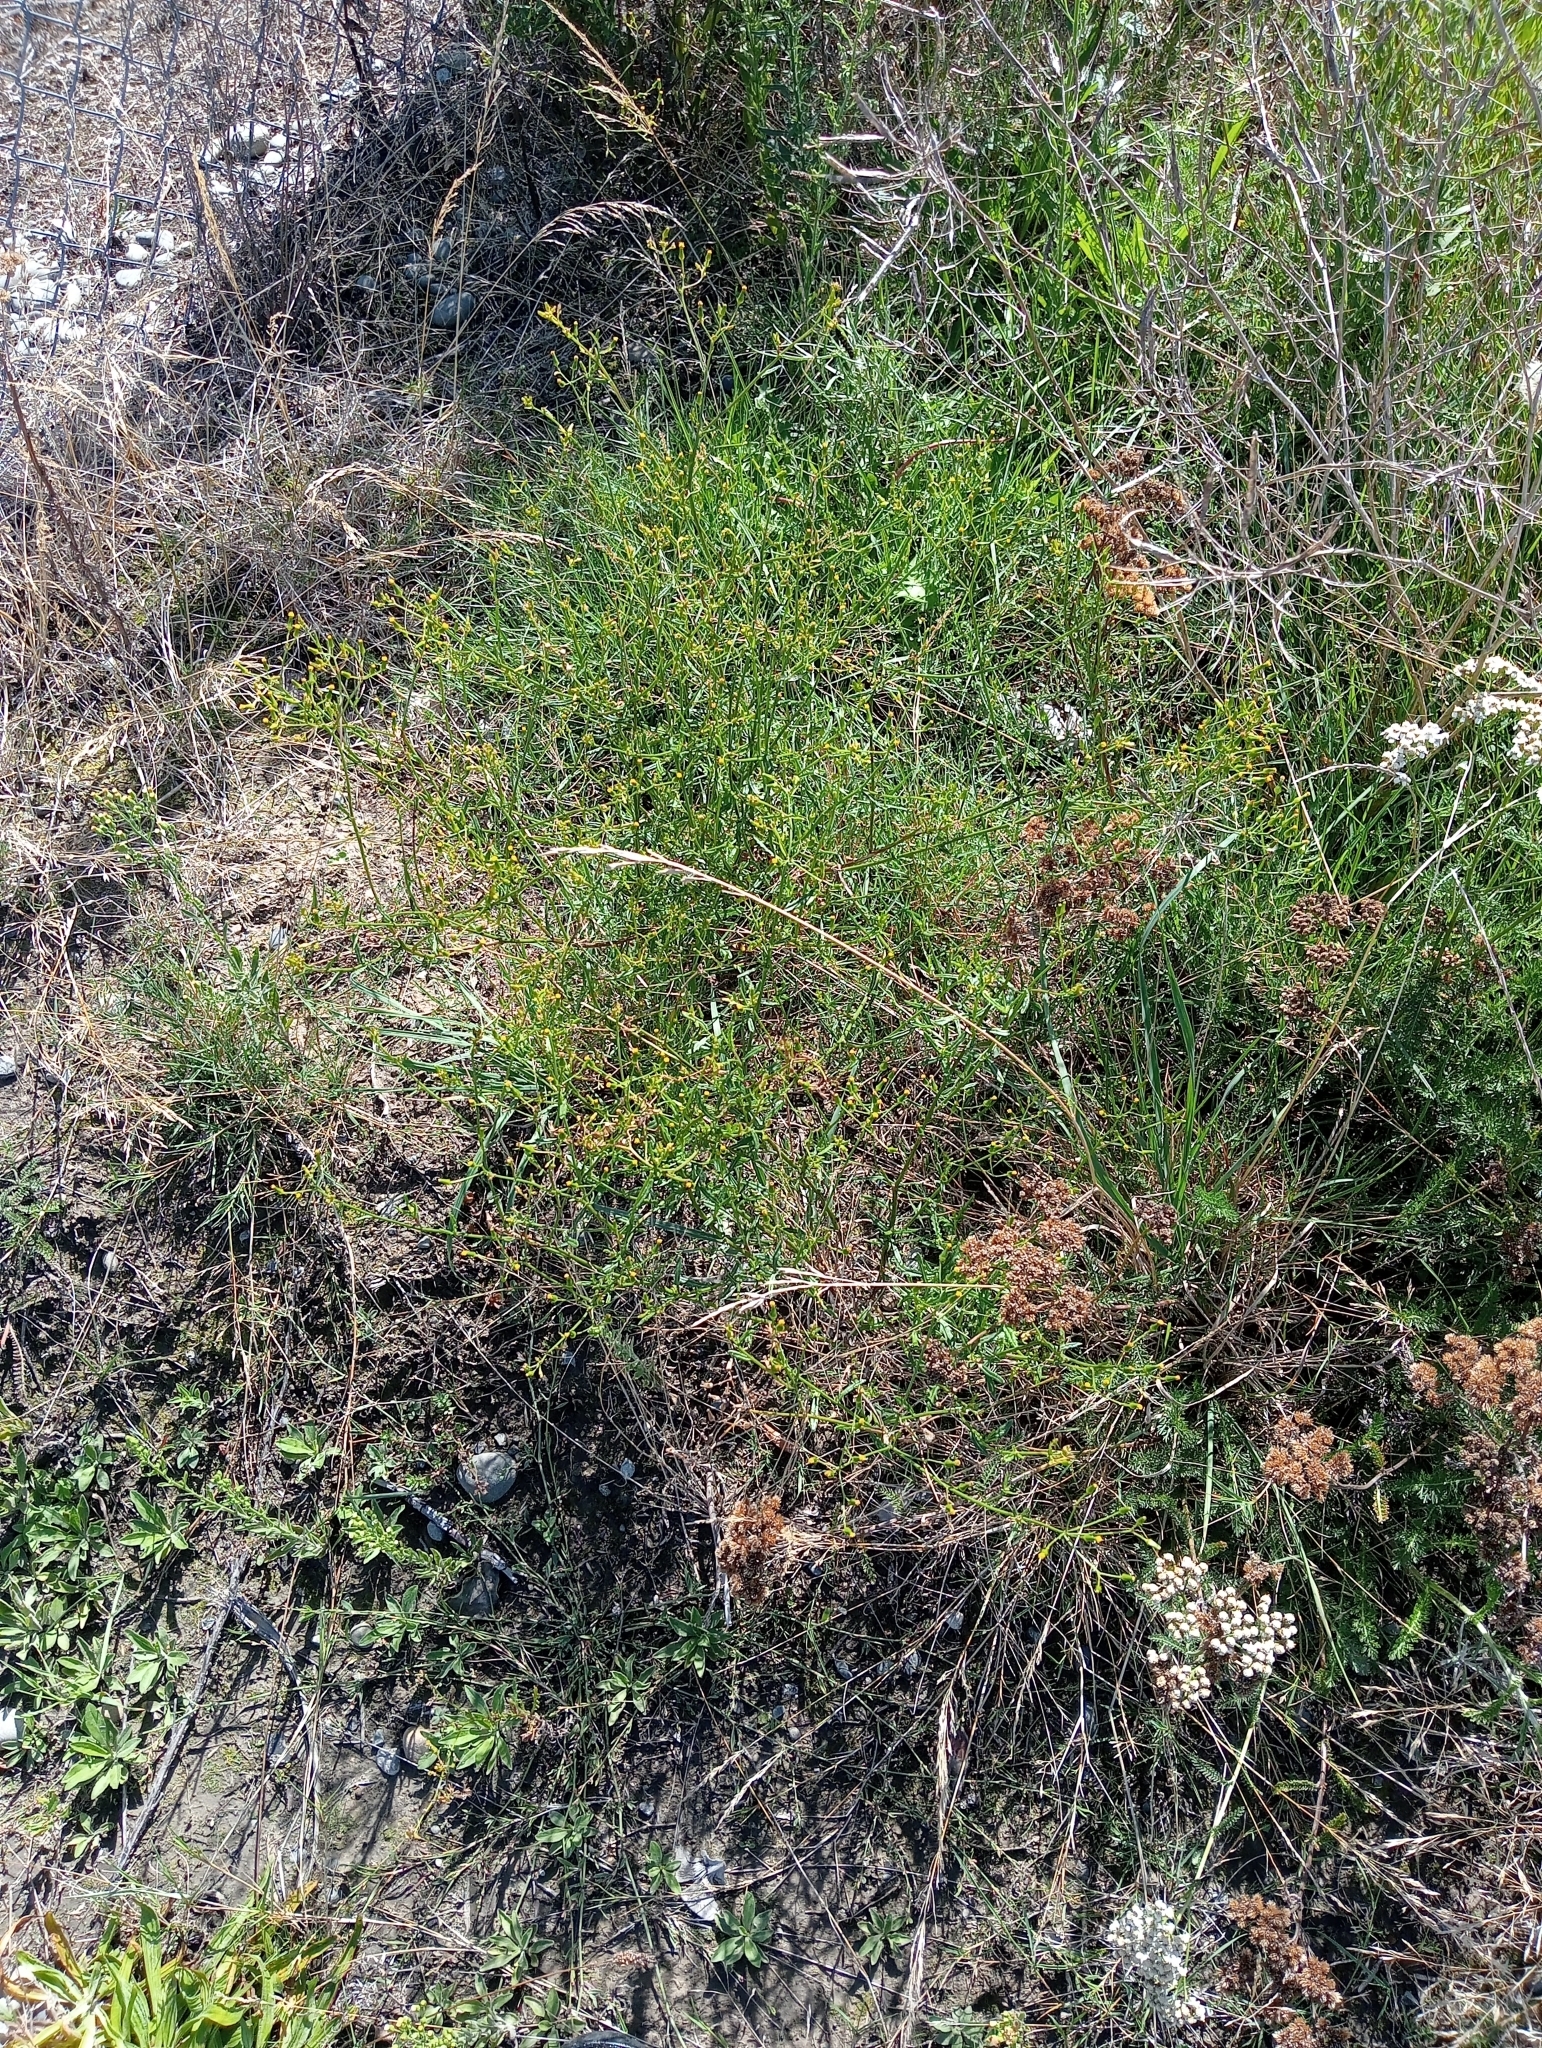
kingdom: Plantae
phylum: Tracheophyta
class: Magnoliopsida
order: Asterales
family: Asteraceae
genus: Senecio
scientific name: Senecio hispidulus
